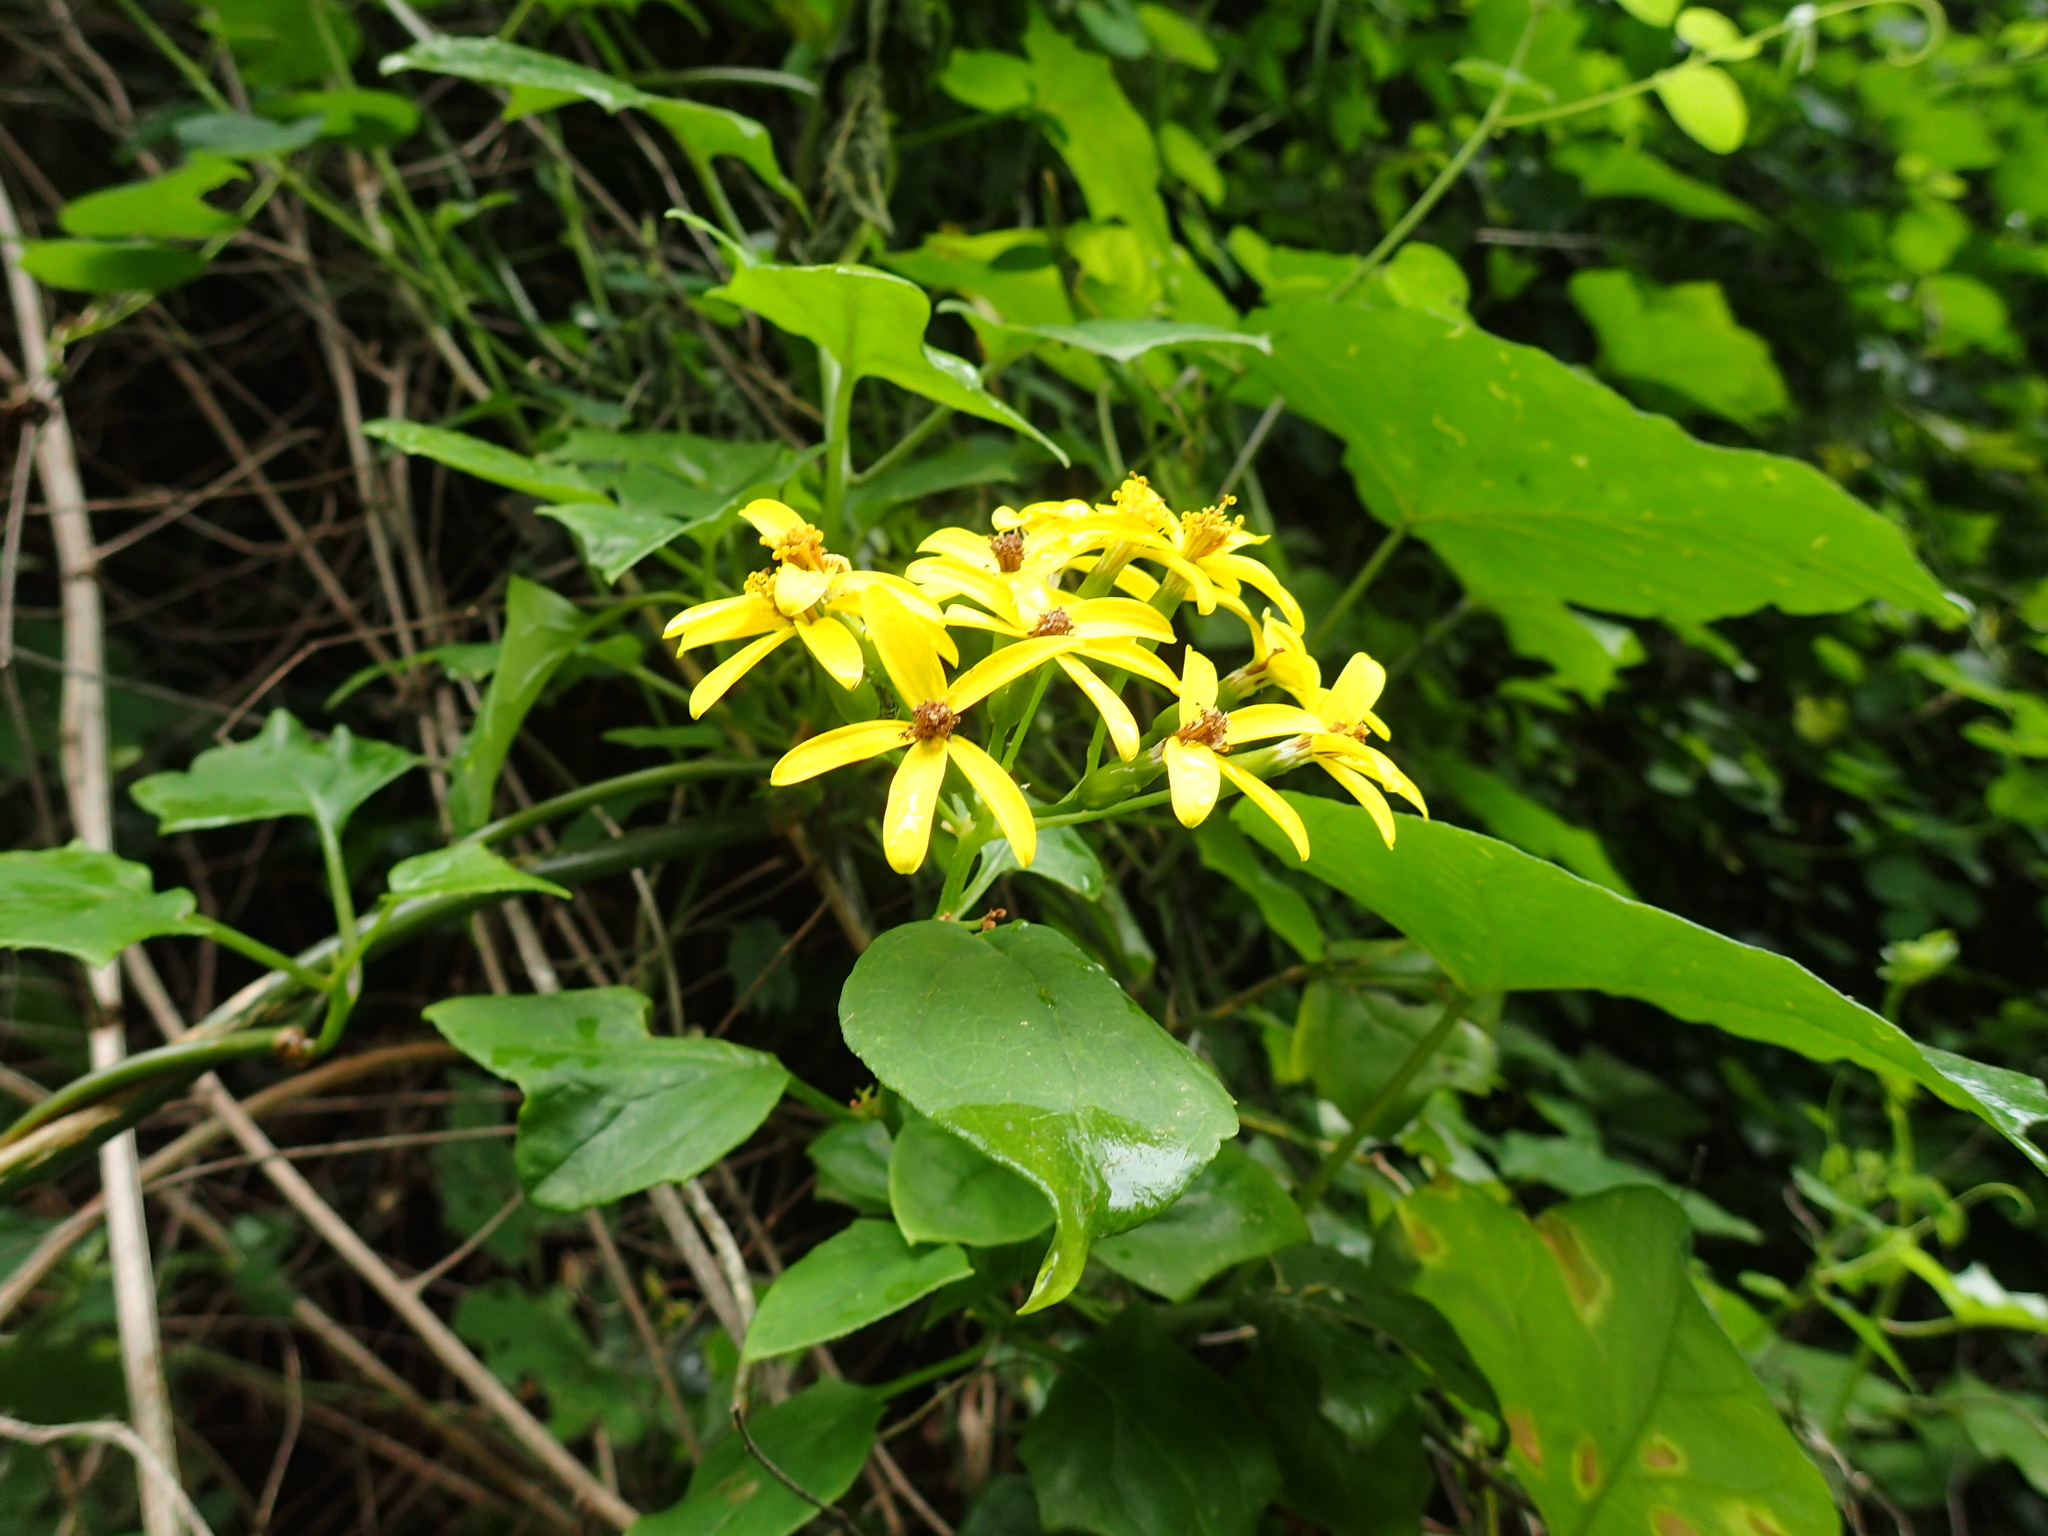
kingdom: Plantae
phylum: Tracheophyta
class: Magnoliopsida
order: Asterales
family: Asteraceae
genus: Senecio
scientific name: Senecio angulatus
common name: Climbing groundsel
